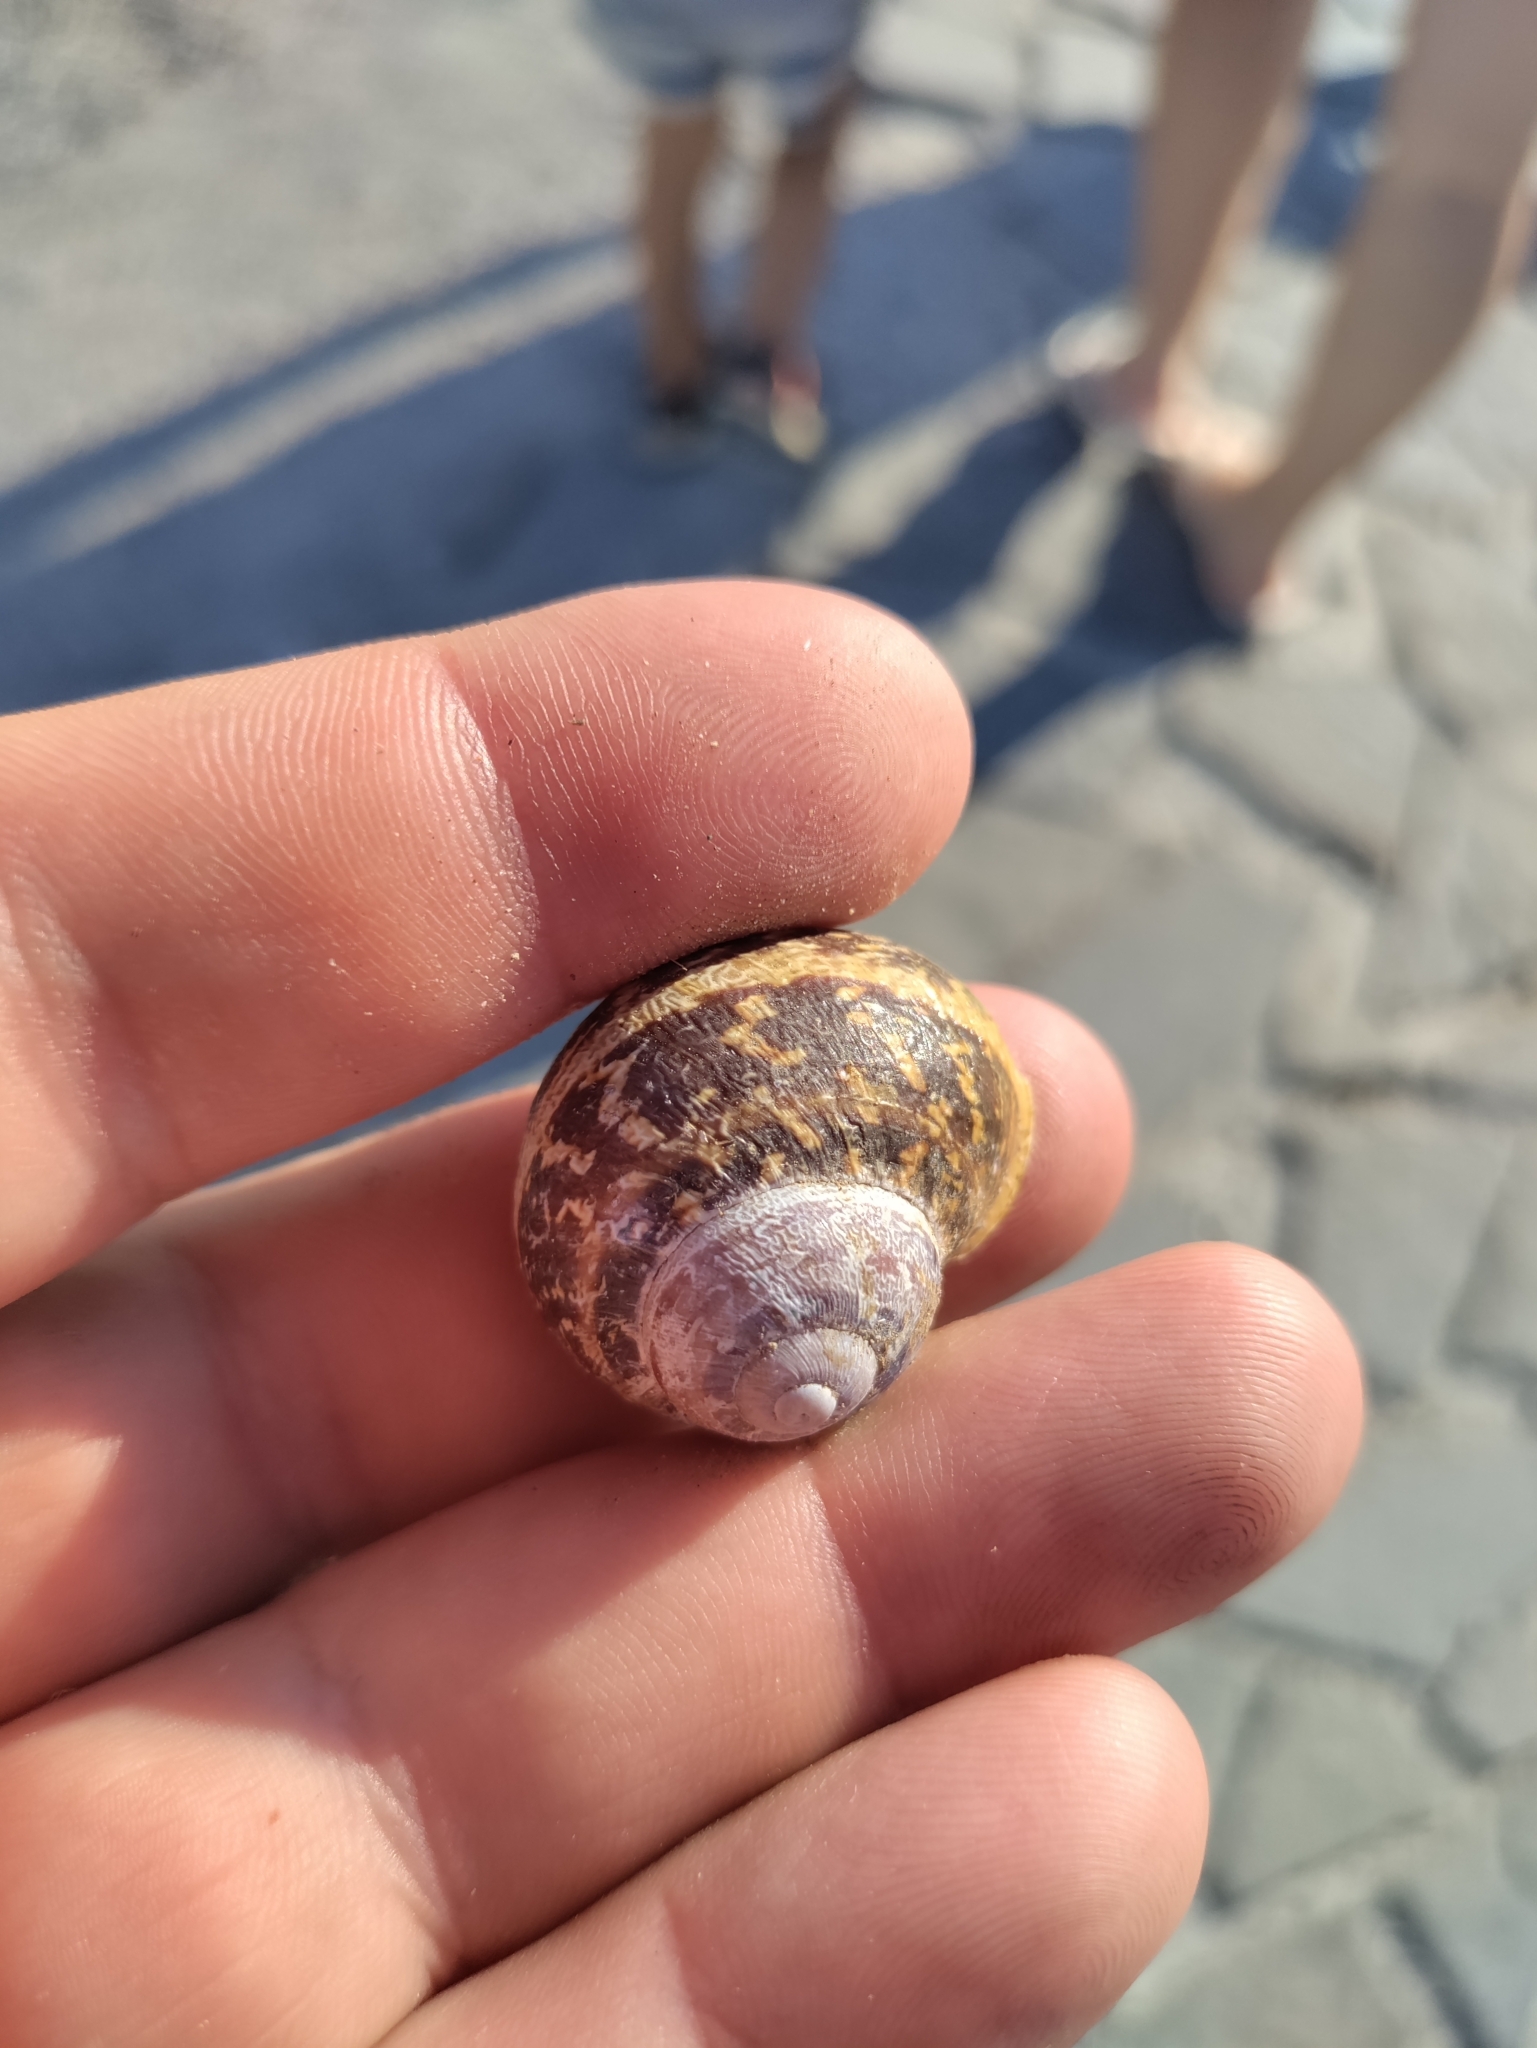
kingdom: Animalia
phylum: Mollusca
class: Gastropoda
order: Stylommatophora
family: Helicidae
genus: Cornu
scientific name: Cornu aspersum
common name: Brown garden snail
